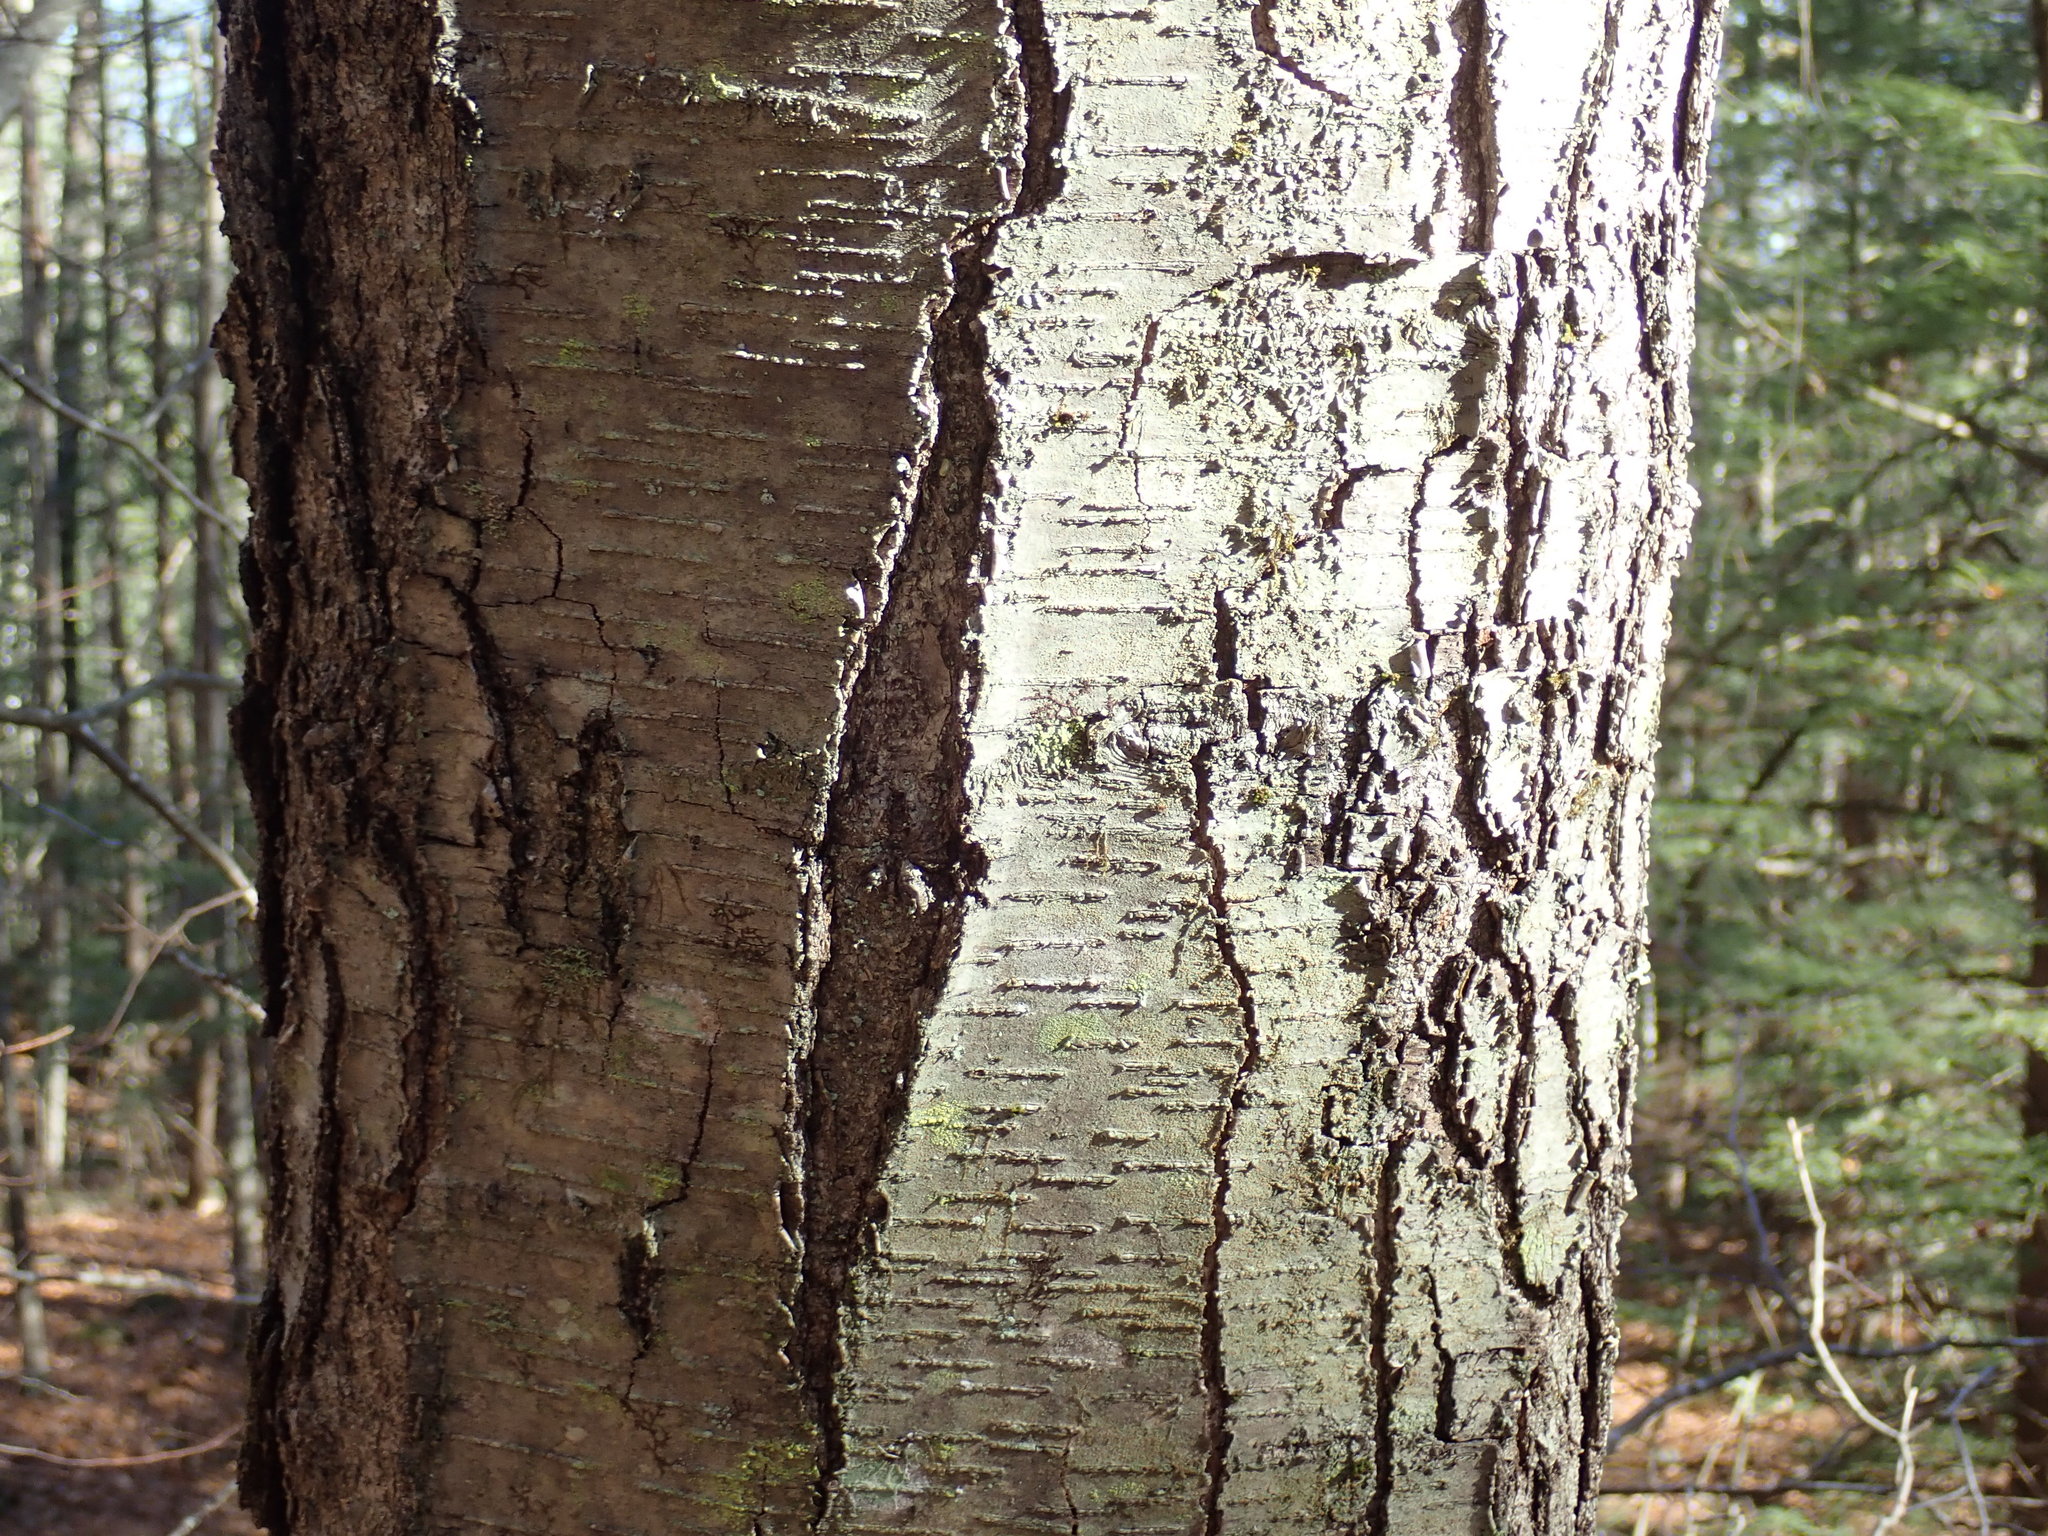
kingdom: Plantae
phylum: Tracheophyta
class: Magnoliopsida
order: Fagales
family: Betulaceae
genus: Betula
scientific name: Betula lenta
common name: Black birch
